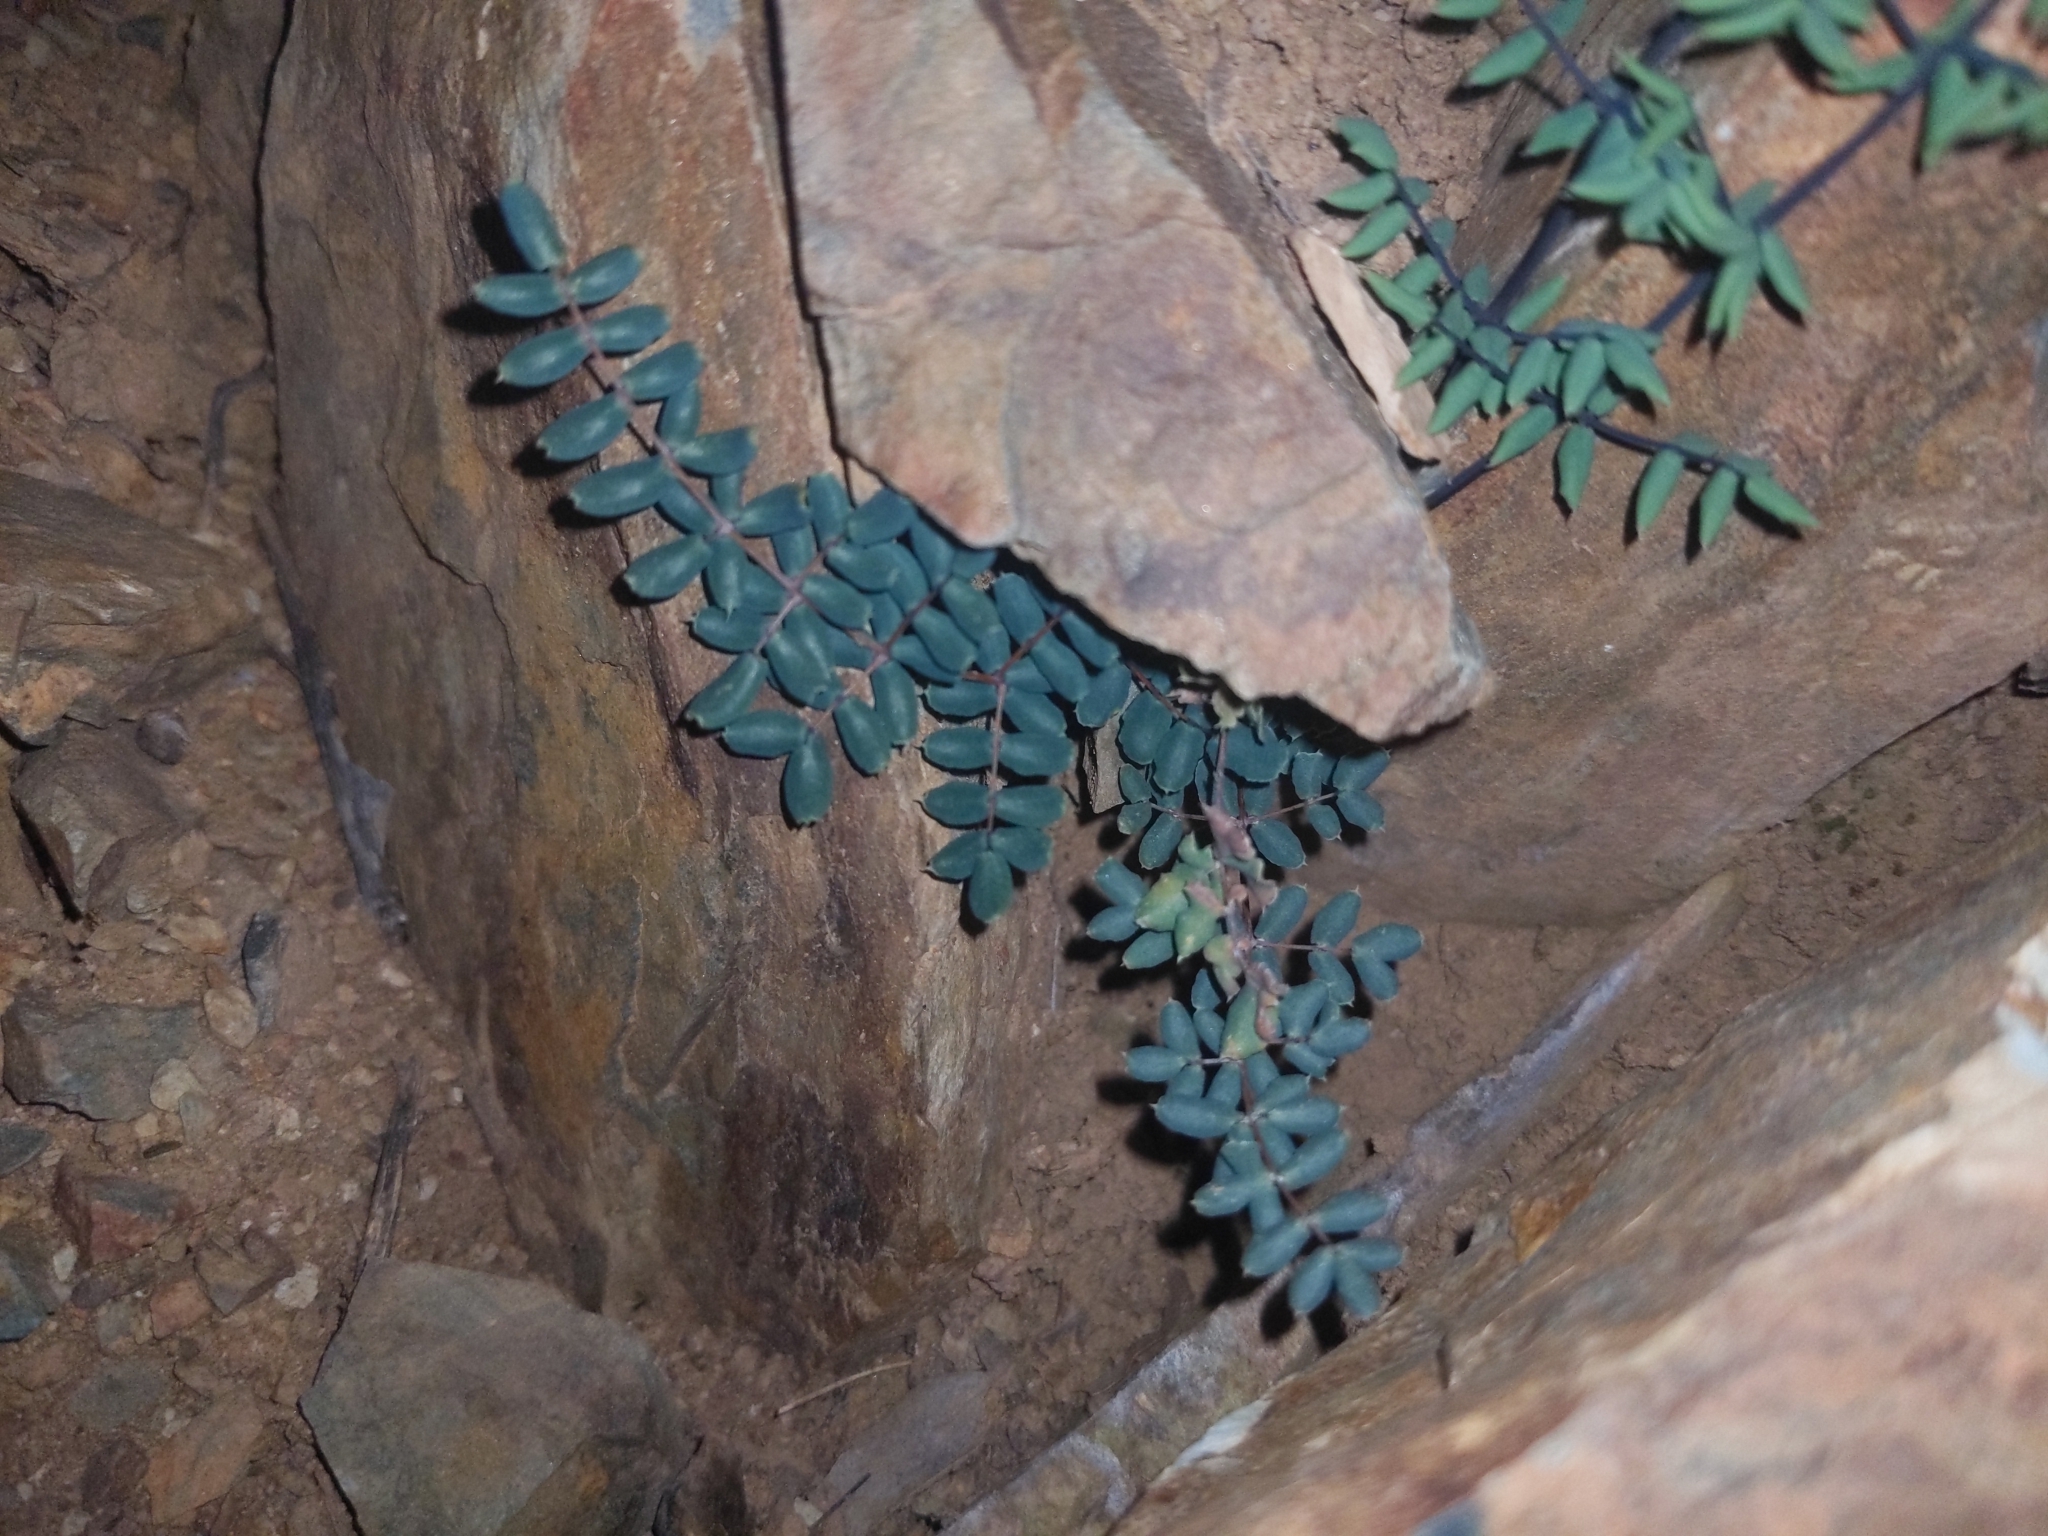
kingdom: Plantae
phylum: Tracheophyta
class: Polypodiopsida
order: Polypodiales
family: Pteridaceae
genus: Pellaea
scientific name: Pellaea truncata
